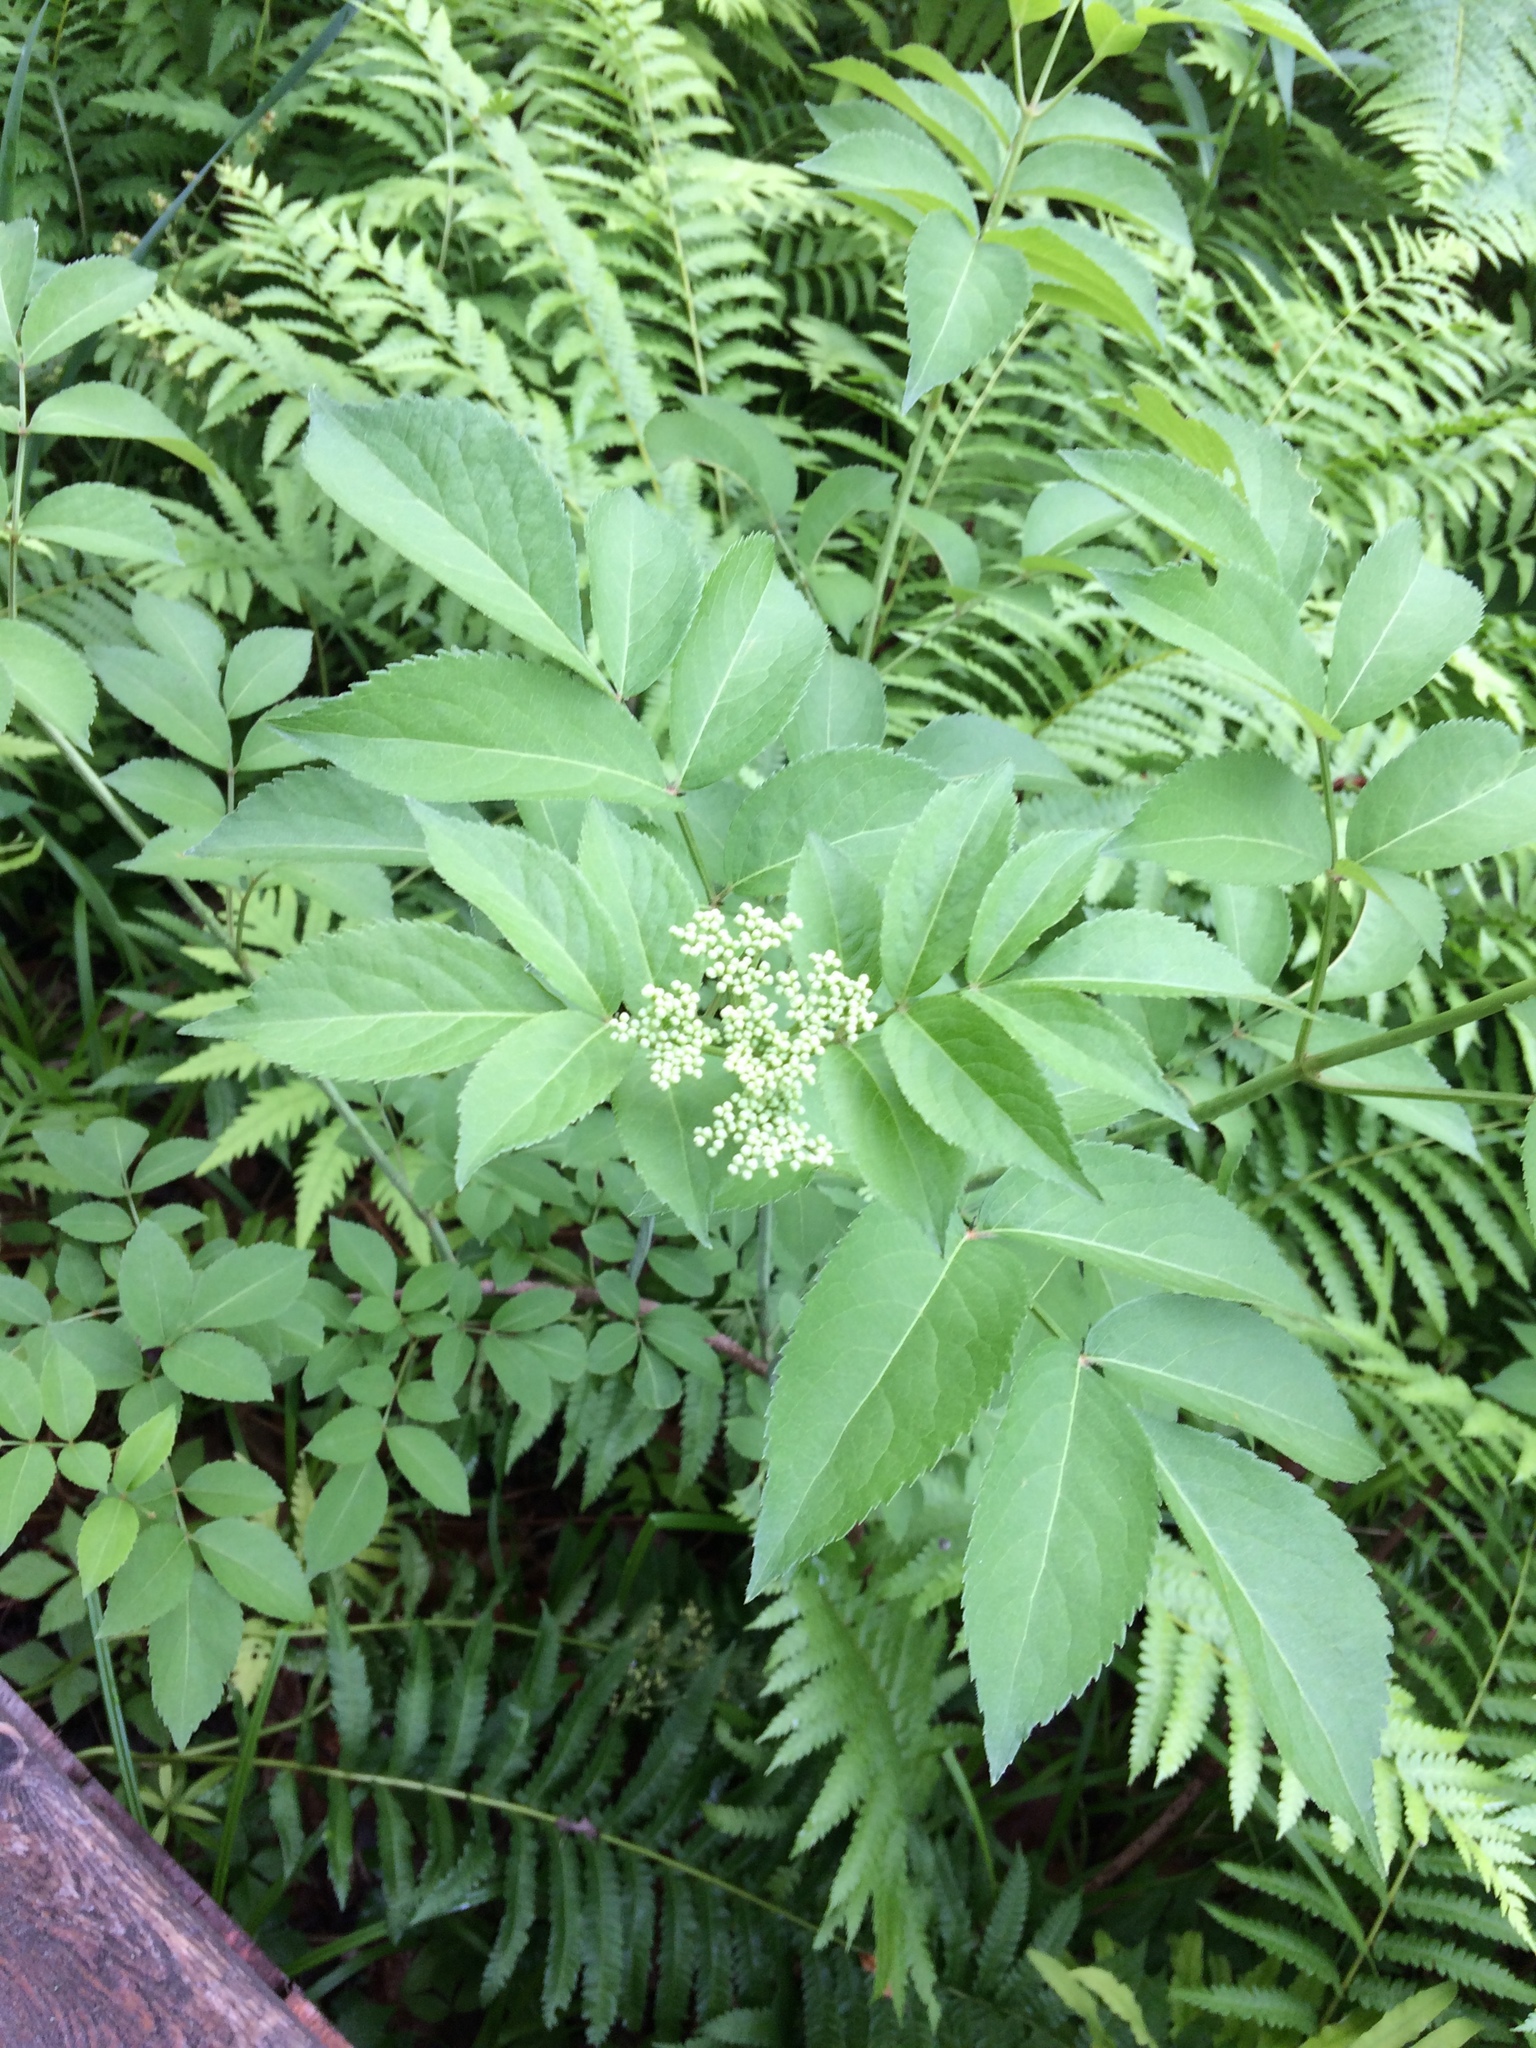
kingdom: Plantae
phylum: Tracheophyta
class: Magnoliopsida
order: Dipsacales
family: Viburnaceae
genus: Sambucus
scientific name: Sambucus canadensis
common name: American elder
